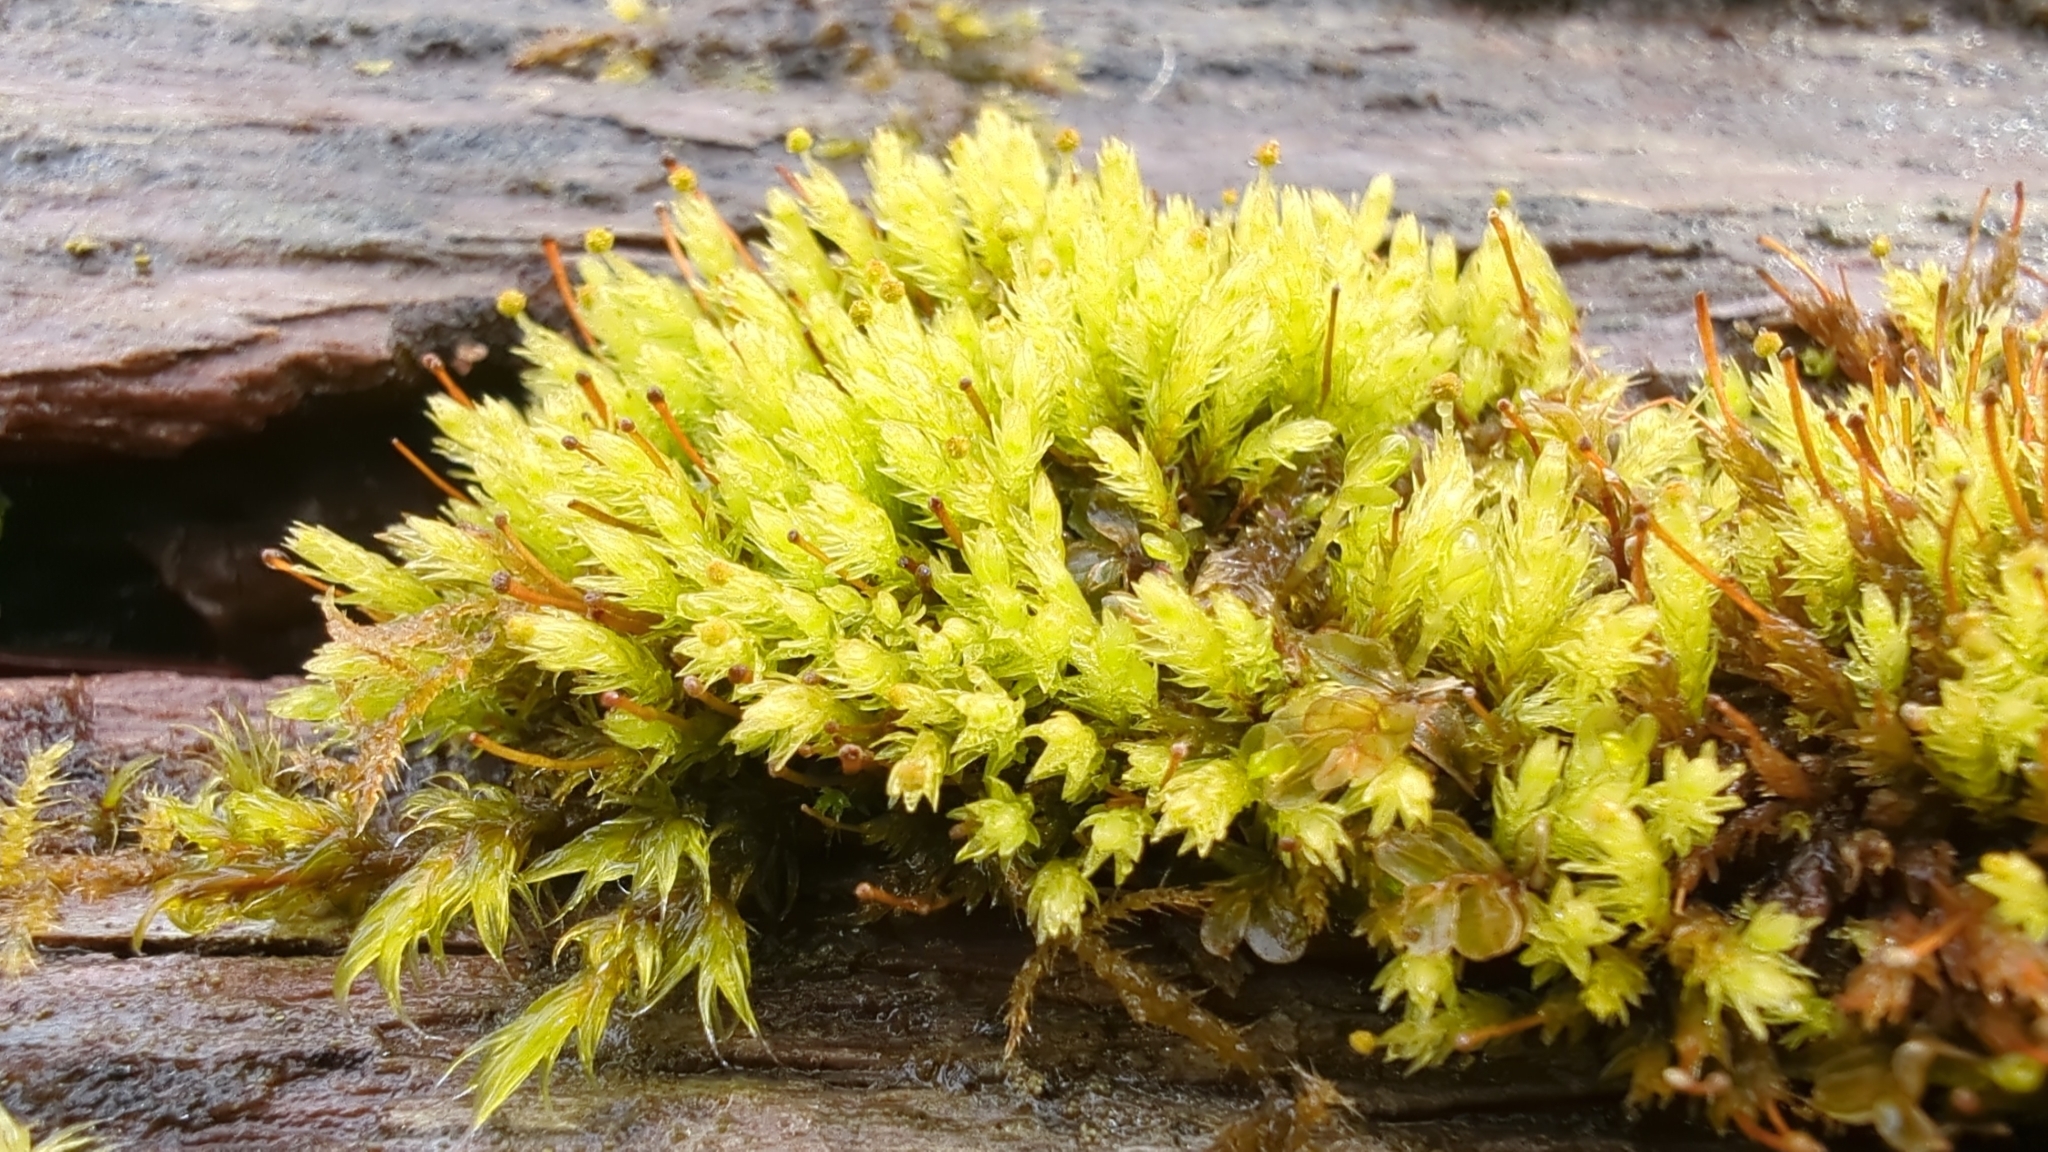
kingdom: Plantae
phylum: Bryophyta
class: Bryopsida
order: Aulacomniales
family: Aulacomniaceae
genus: Aulacomnium
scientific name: Aulacomnium androgynum
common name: Little groove moss
